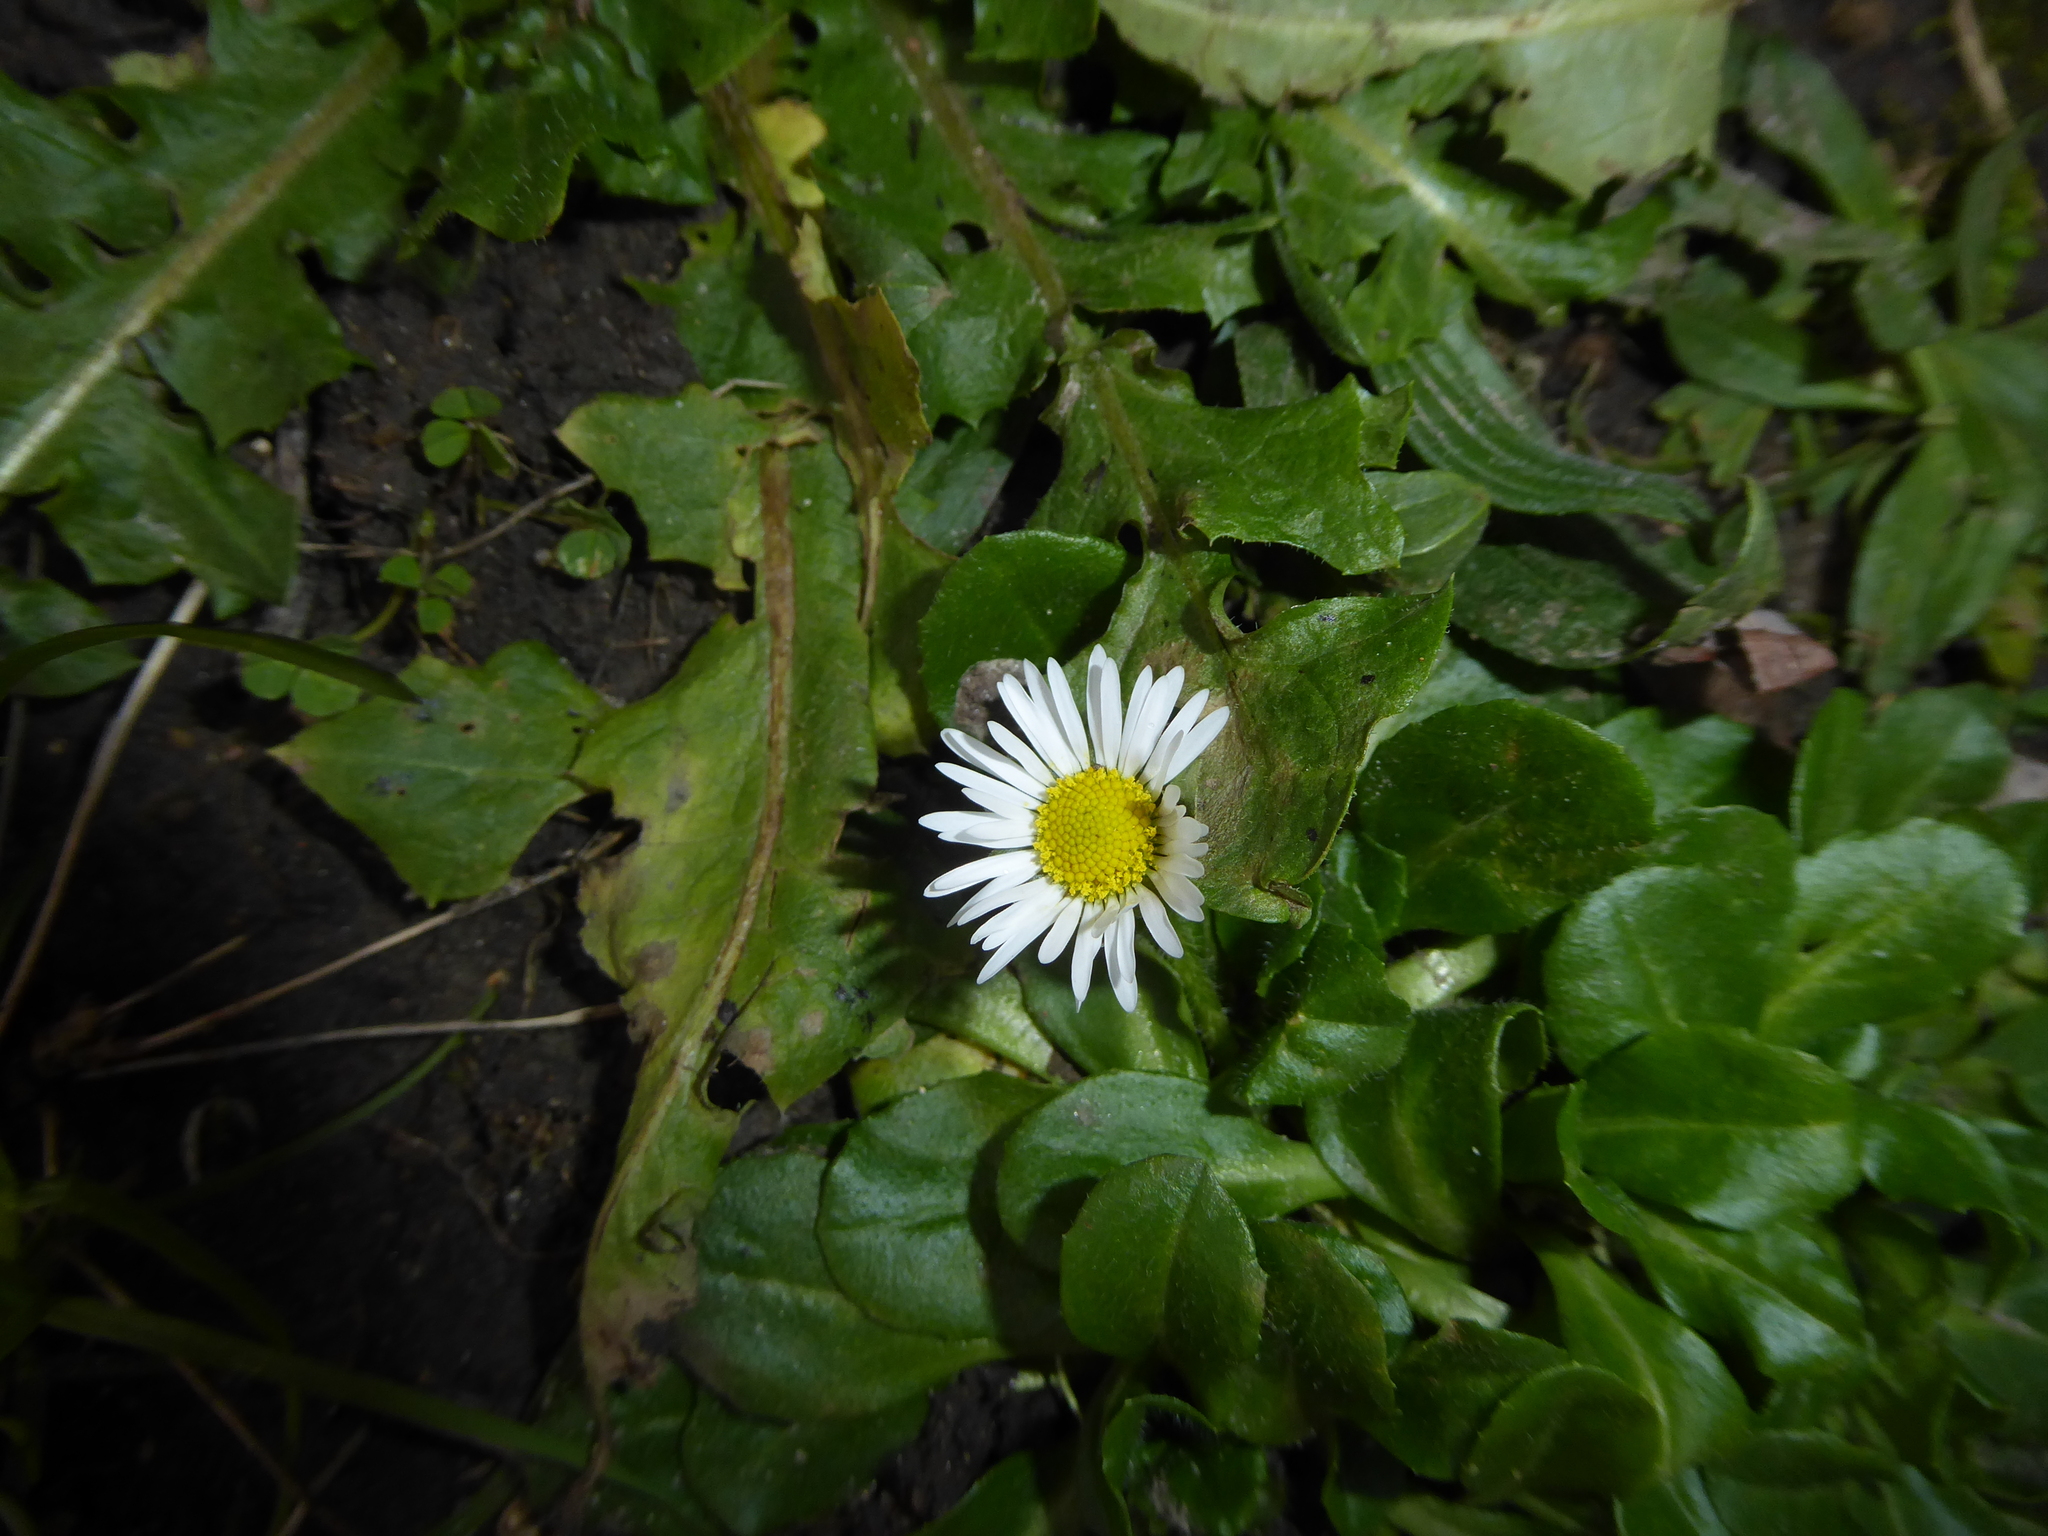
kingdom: Plantae
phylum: Tracheophyta
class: Magnoliopsida
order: Asterales
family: Asteraceae
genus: Bellis
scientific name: Bellis perennis
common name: Lawndaisy
